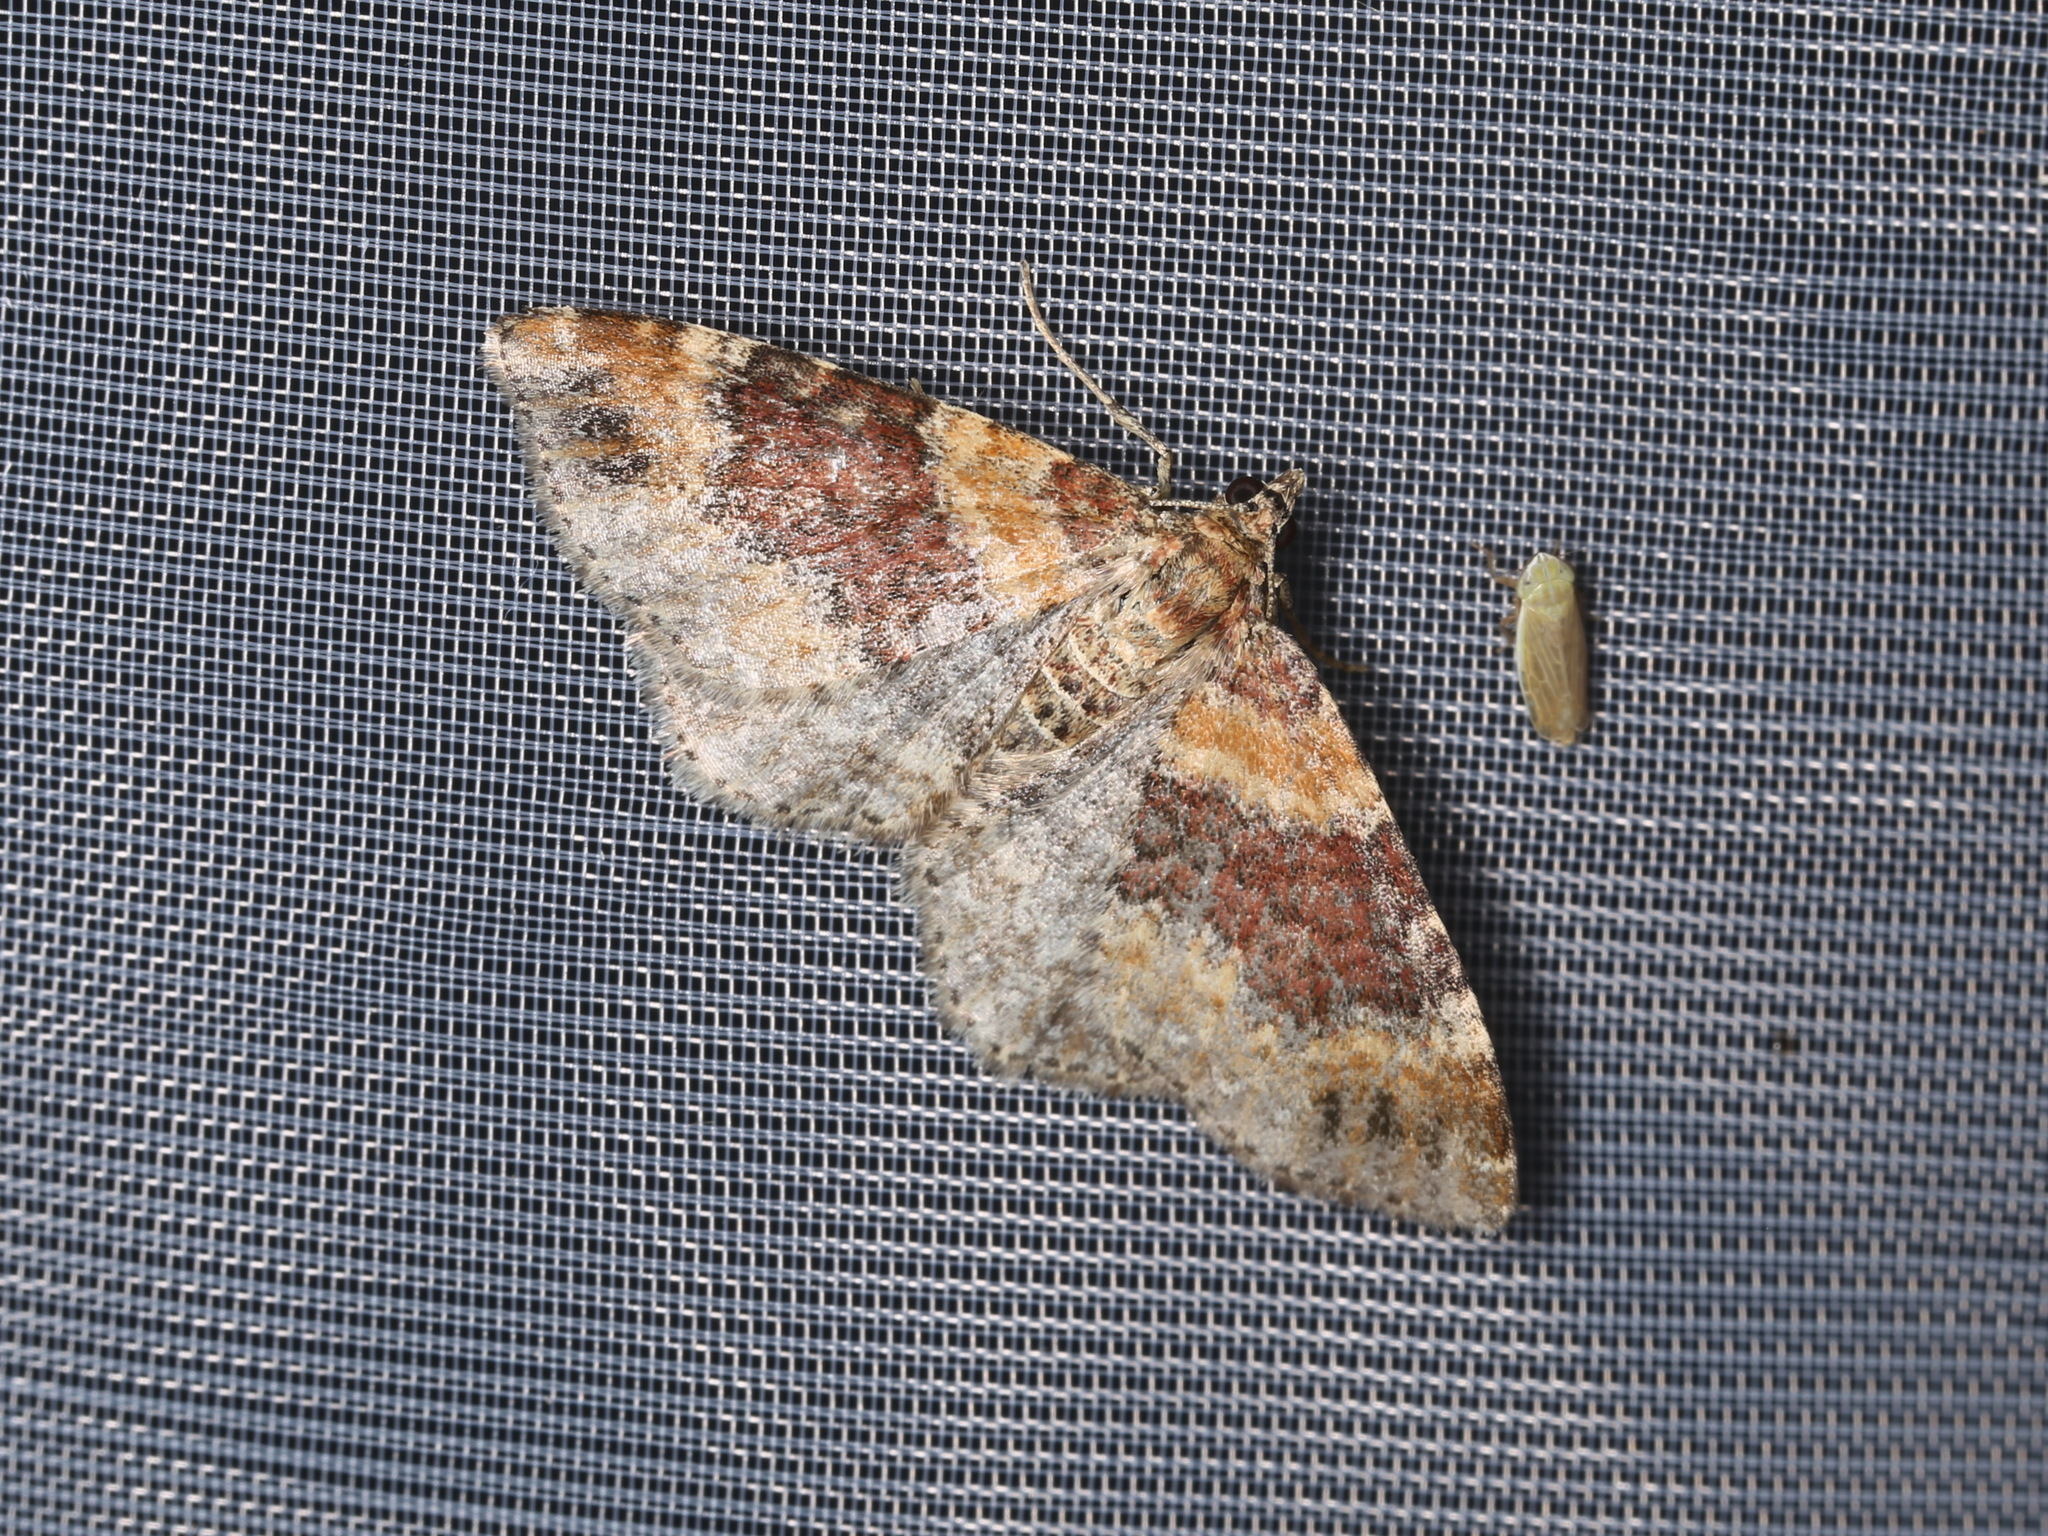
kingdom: Animalia
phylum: Arthropoda
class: Insecta
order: Lepidoptera
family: Geometridae
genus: Xanthorhoe
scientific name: Xanthorhoe spadicearia
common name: Red twin-spot carpet
